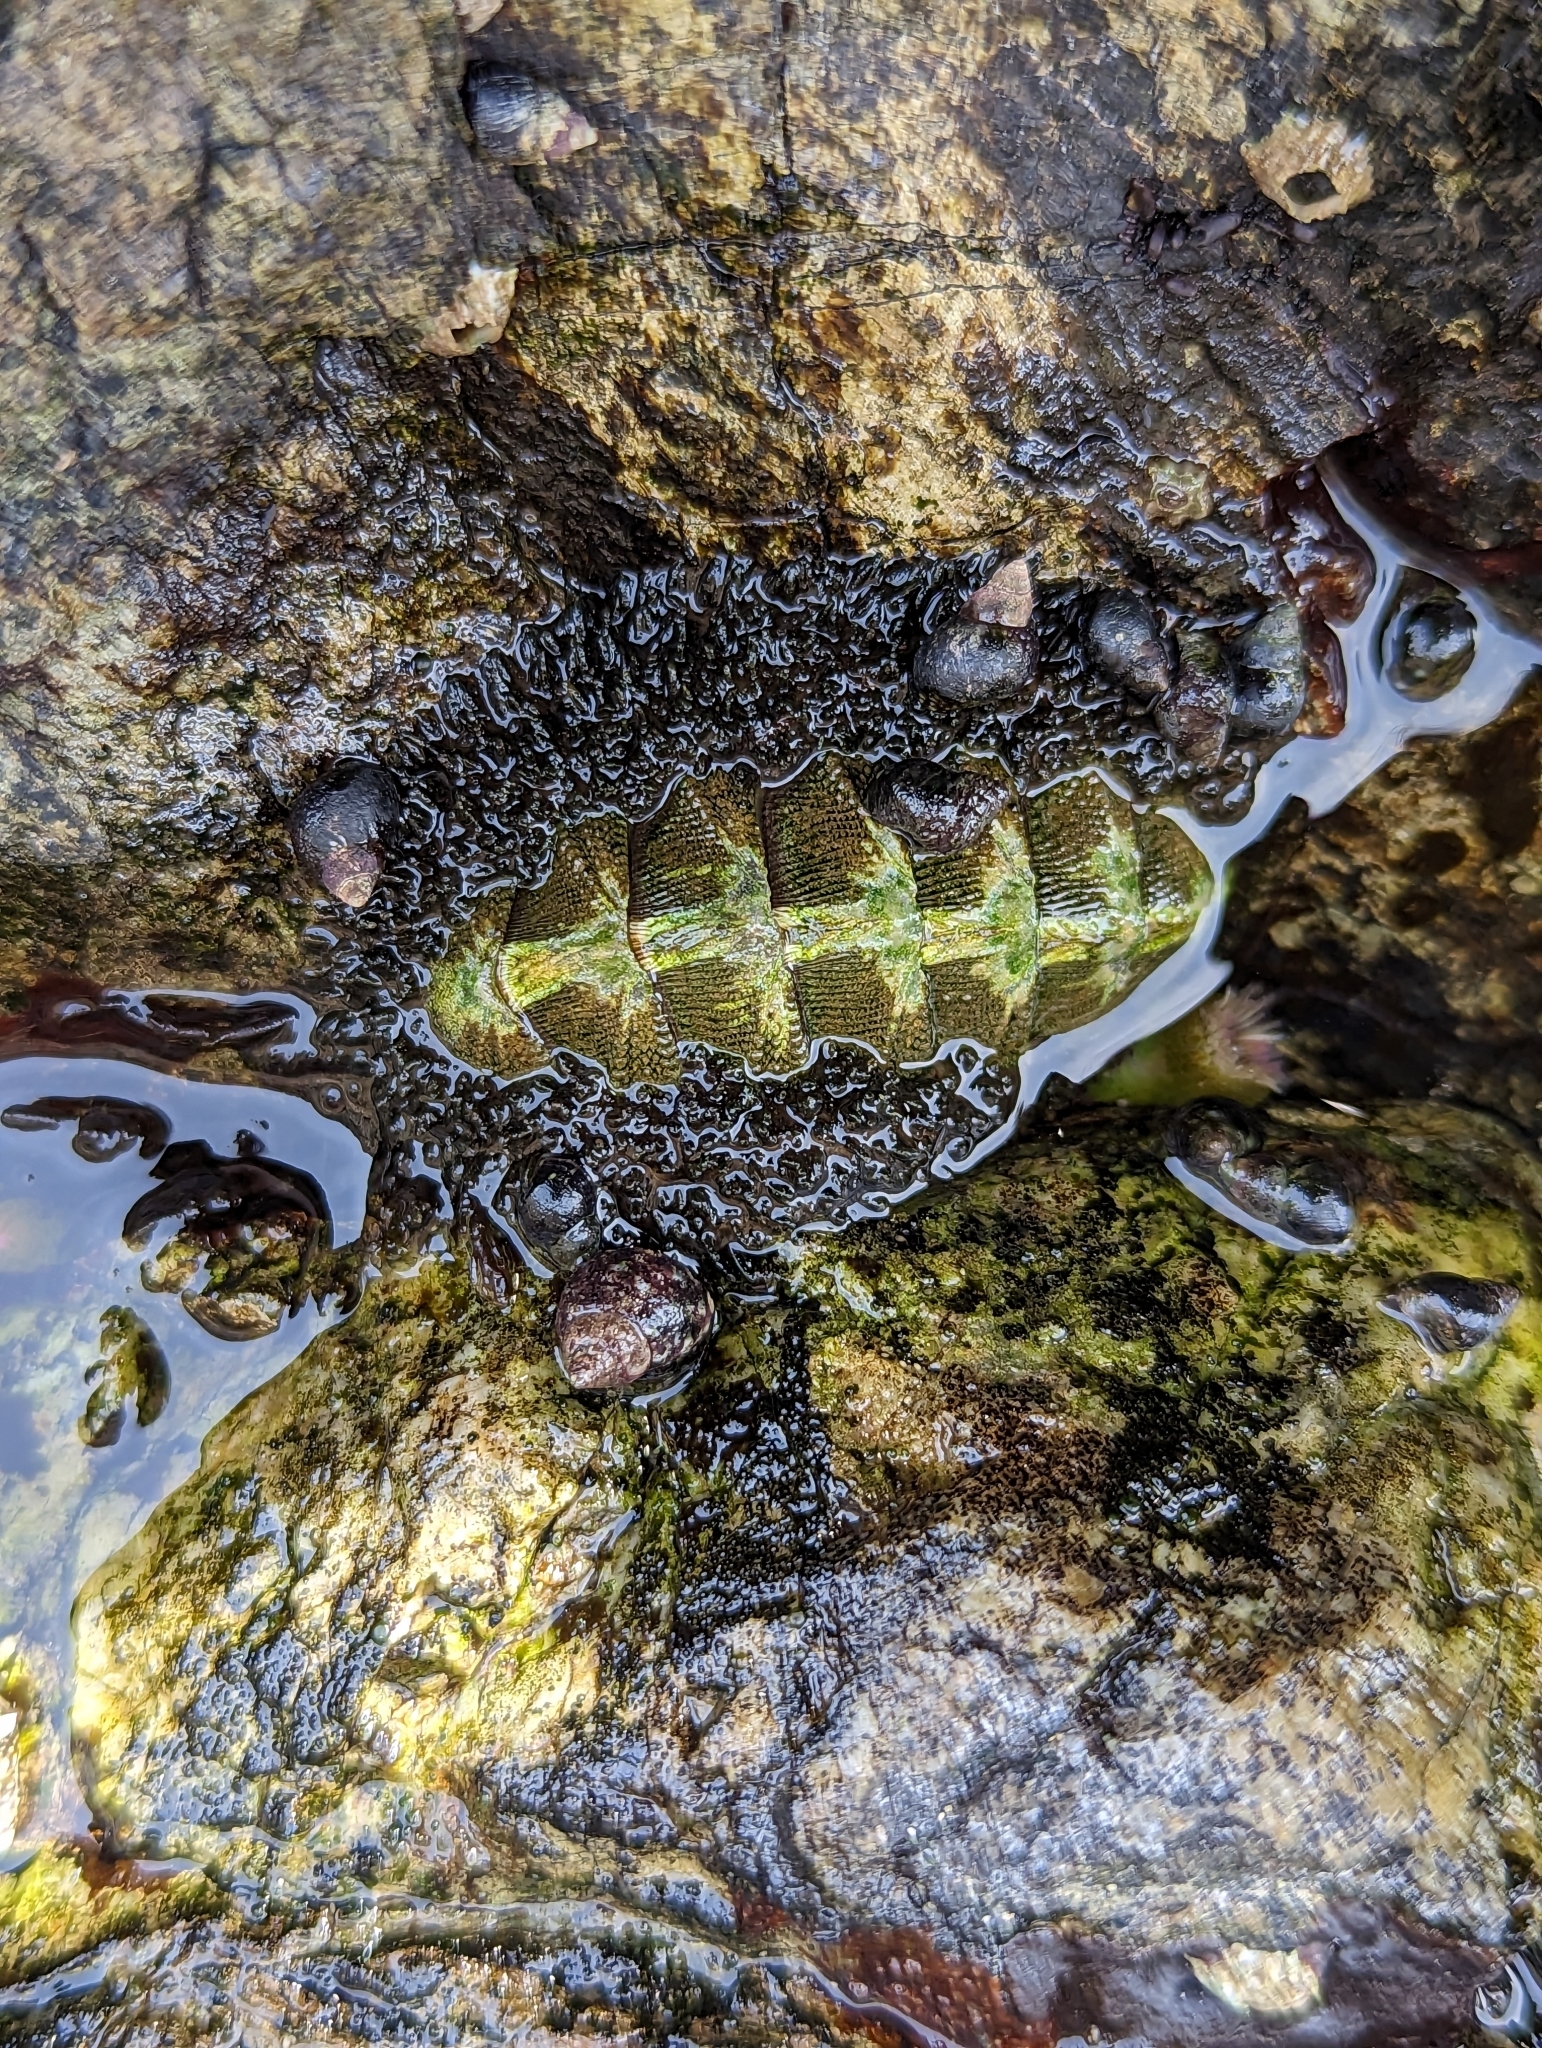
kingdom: Animalia
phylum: Mollusca
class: Polyplacophora
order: Chitonida
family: Mopaliidae
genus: Mopalia
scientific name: Mopalia muscosa
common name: Mossy chiton
